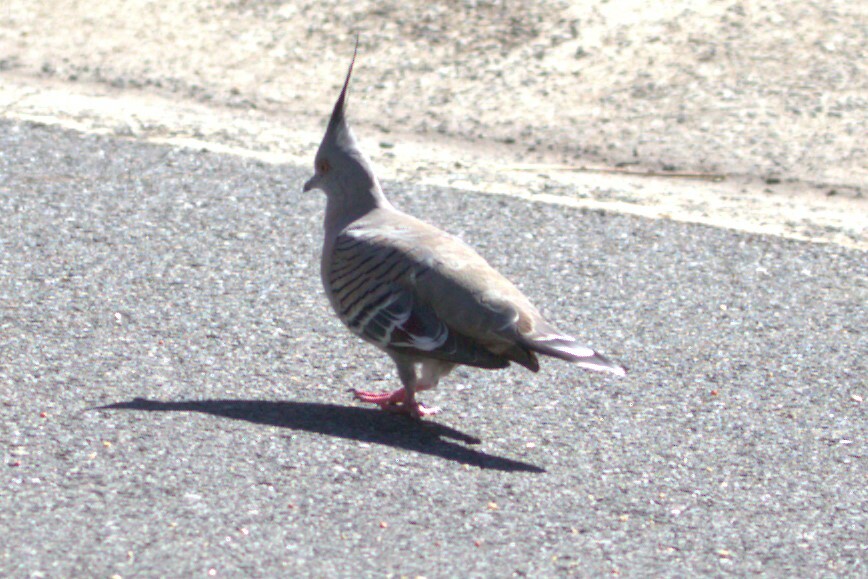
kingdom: Animalia
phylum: Chordata
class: Aves
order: Columbiformes
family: Columbidae
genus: Ocyphaps
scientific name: Ocyphaps lophotes
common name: Crested pigeon
